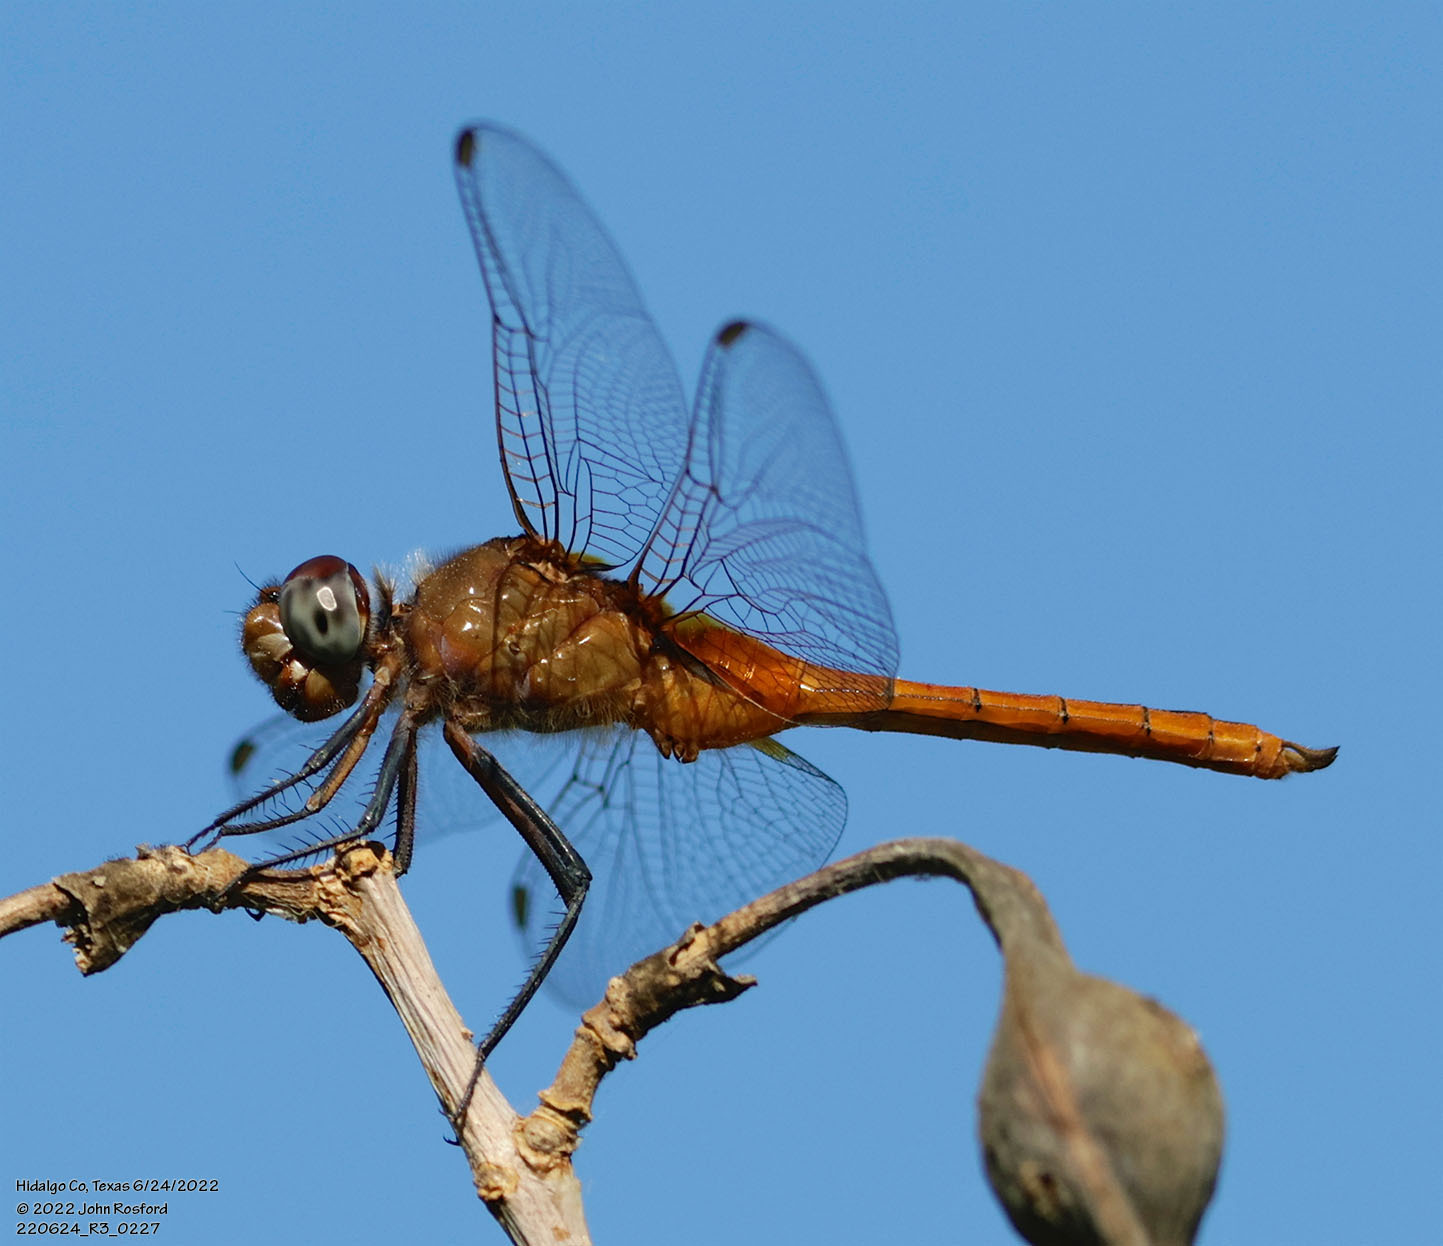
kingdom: Animalia
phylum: Arthropoda
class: Insecta
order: Odonata
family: Libellulidae
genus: Brachymesia
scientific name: Brachymesia furcata
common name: Red-taled pennant
